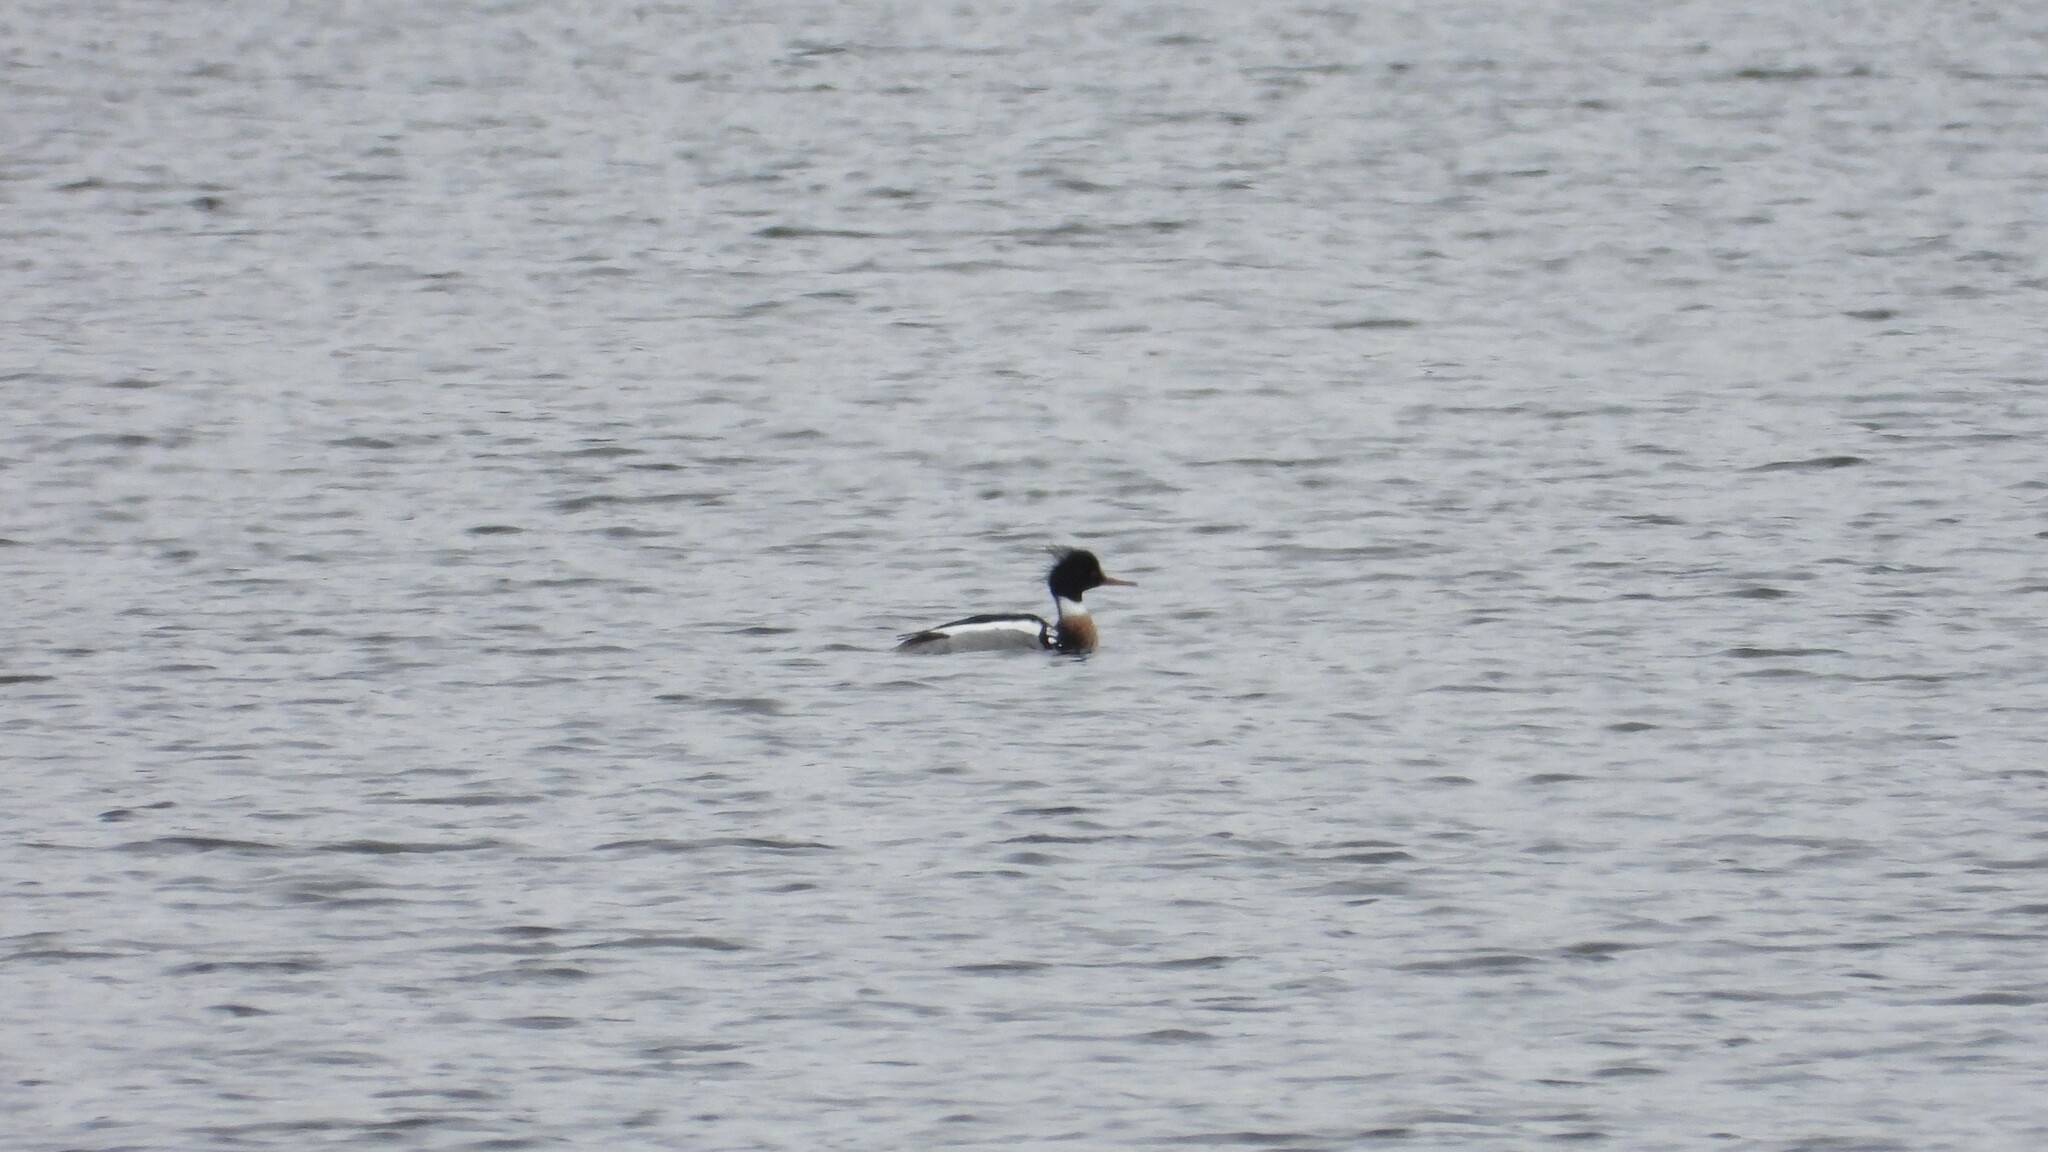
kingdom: Animalia
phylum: Chordata
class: Aves
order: Anseriformes
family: Anatidae
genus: Mergus
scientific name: Mergus serrator
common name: Red-breasted merganser
